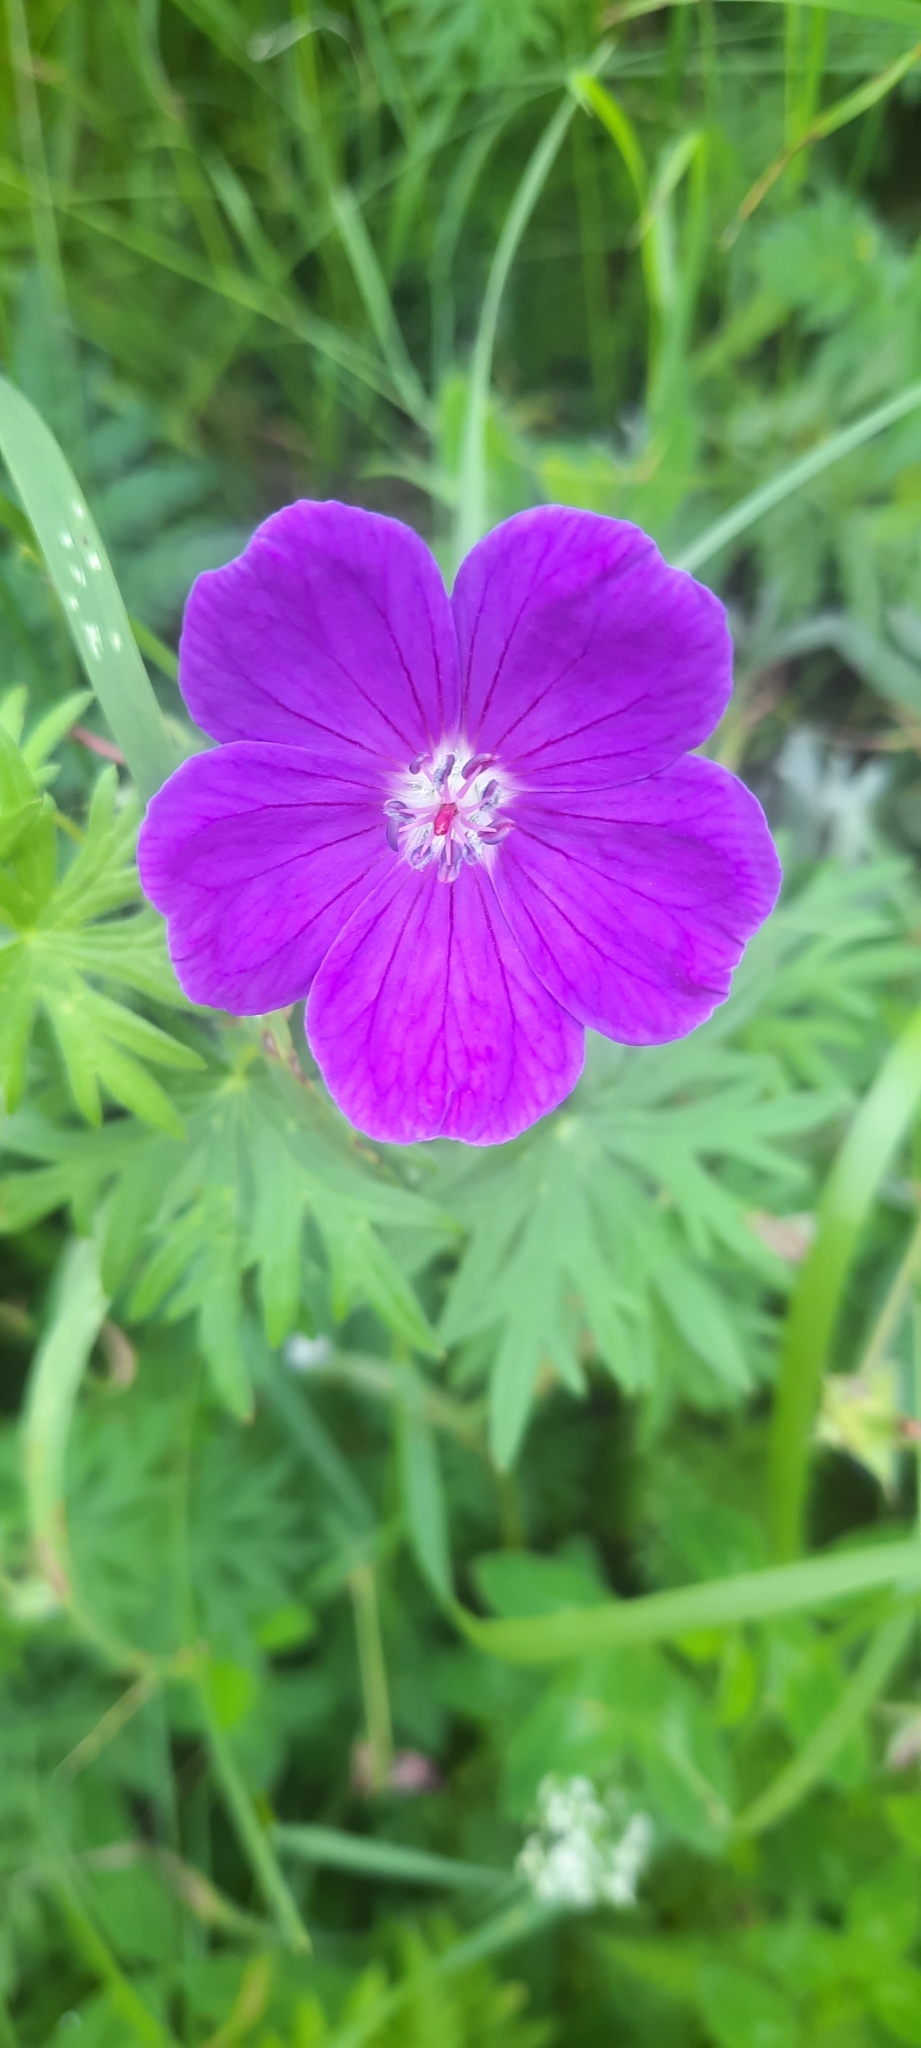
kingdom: Plantae
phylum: Tracheophyta
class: Magnoliopsida
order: Geraniales
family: Geraniaceae
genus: Geranium
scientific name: Geranium sanguineum
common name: Bloody crane's-bill
